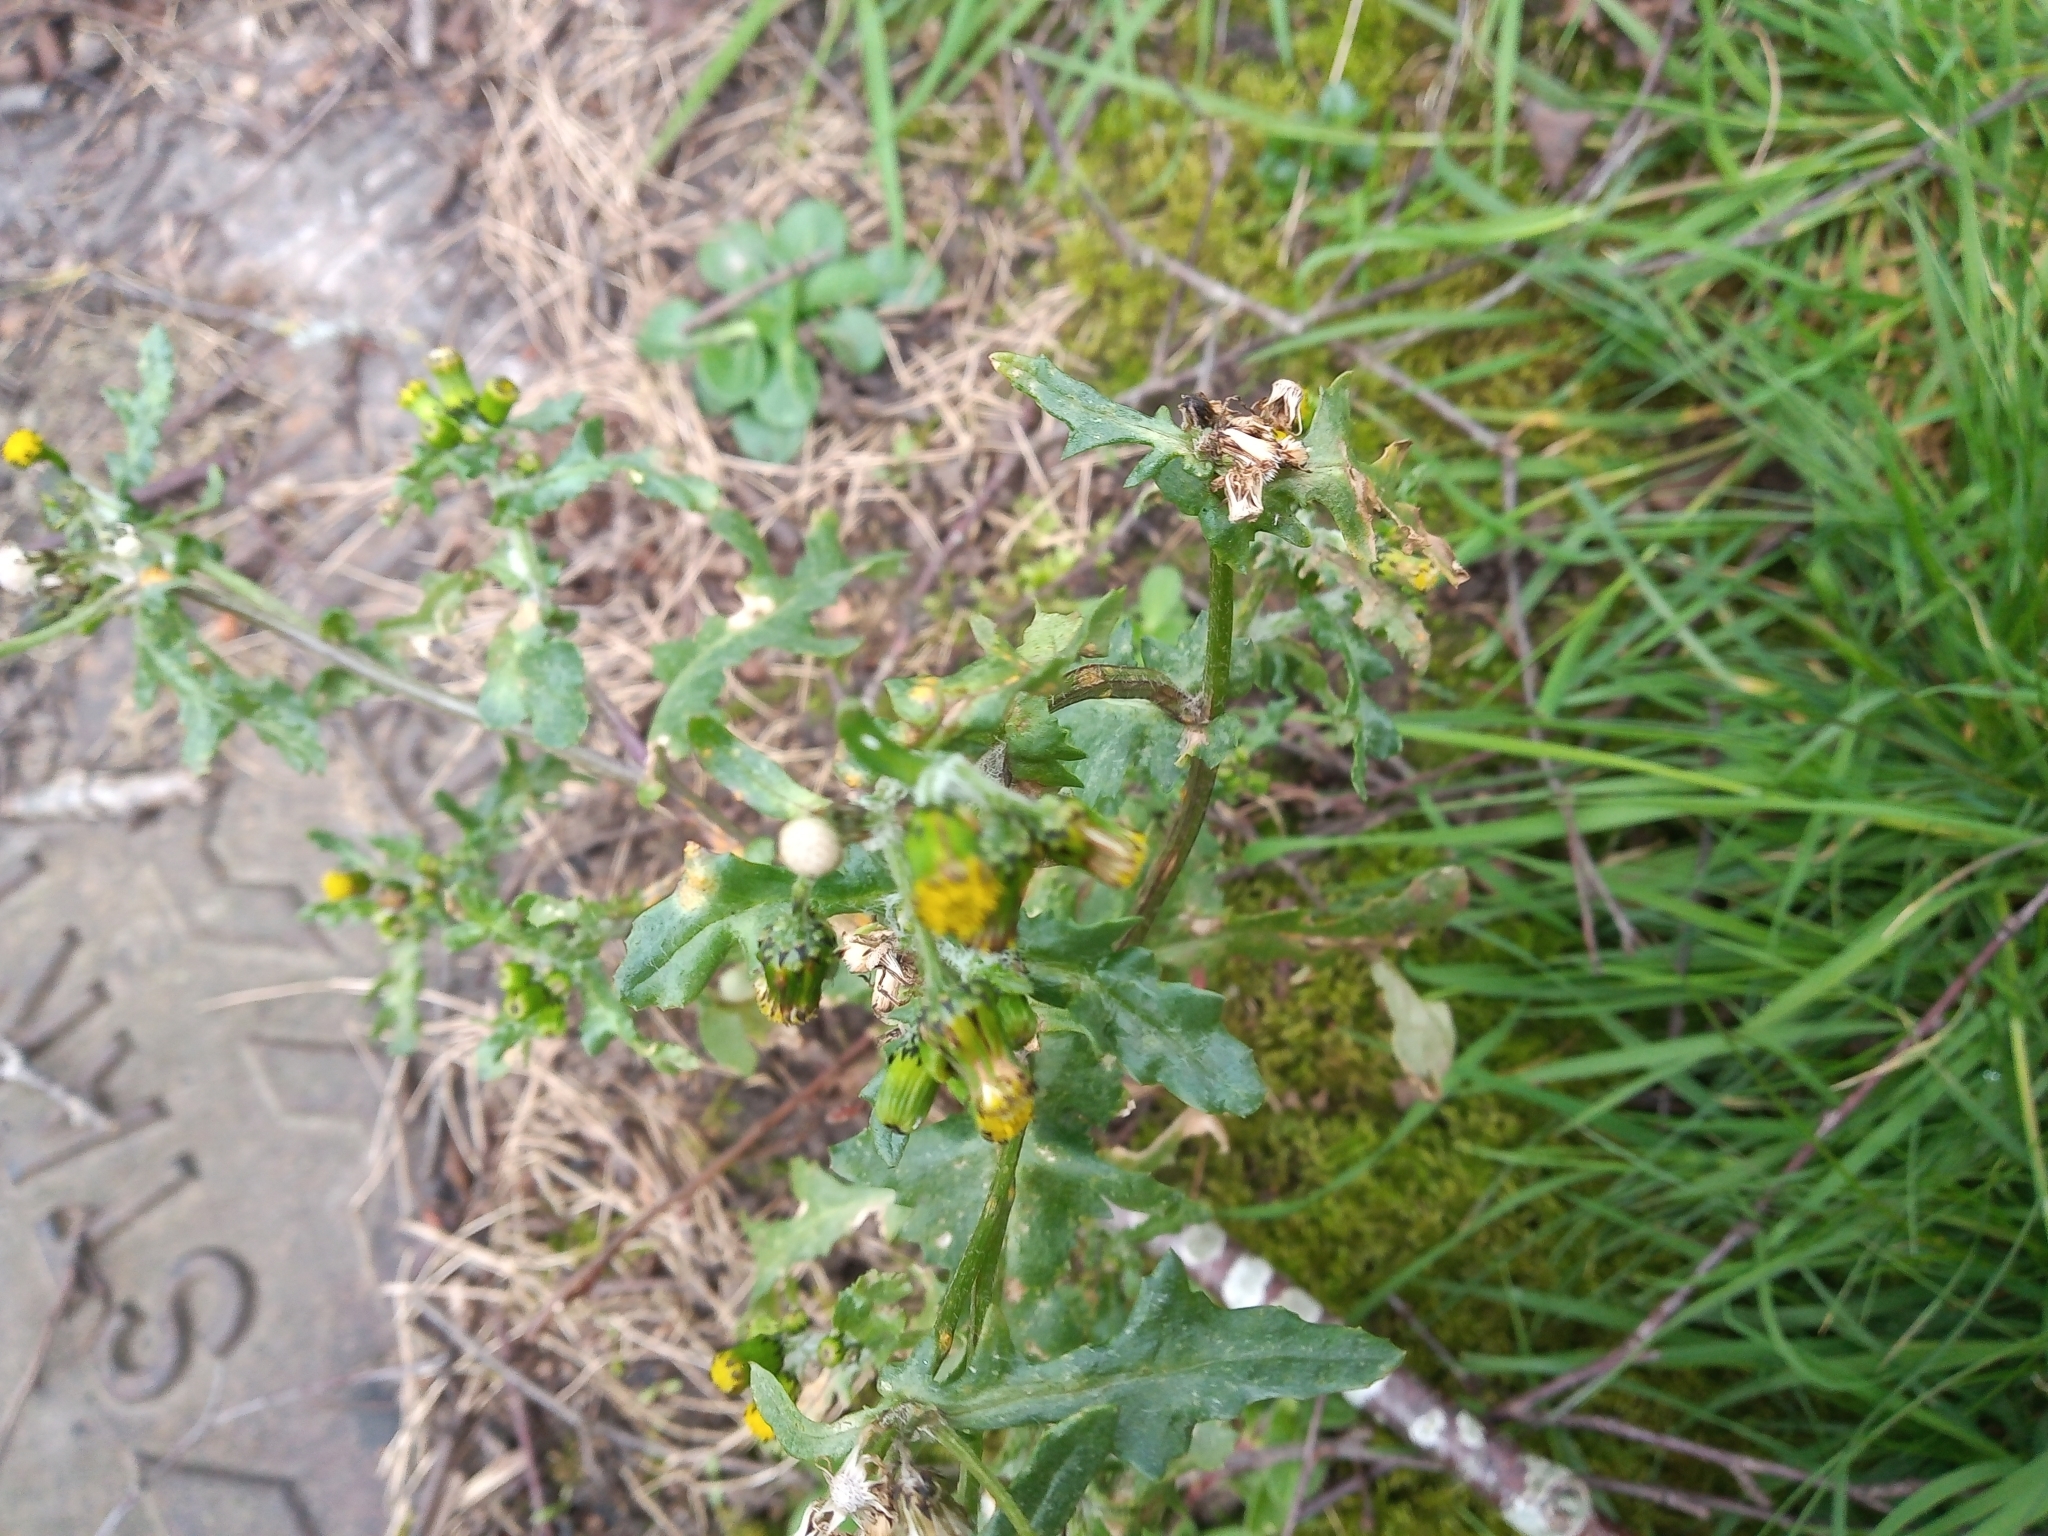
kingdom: Plantae
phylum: Tracheophyta
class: Magnoliopsida
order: Asterales
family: Asteraceae
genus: Senecio
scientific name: Senecio vulgaris
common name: Old-man-in-the-spring
